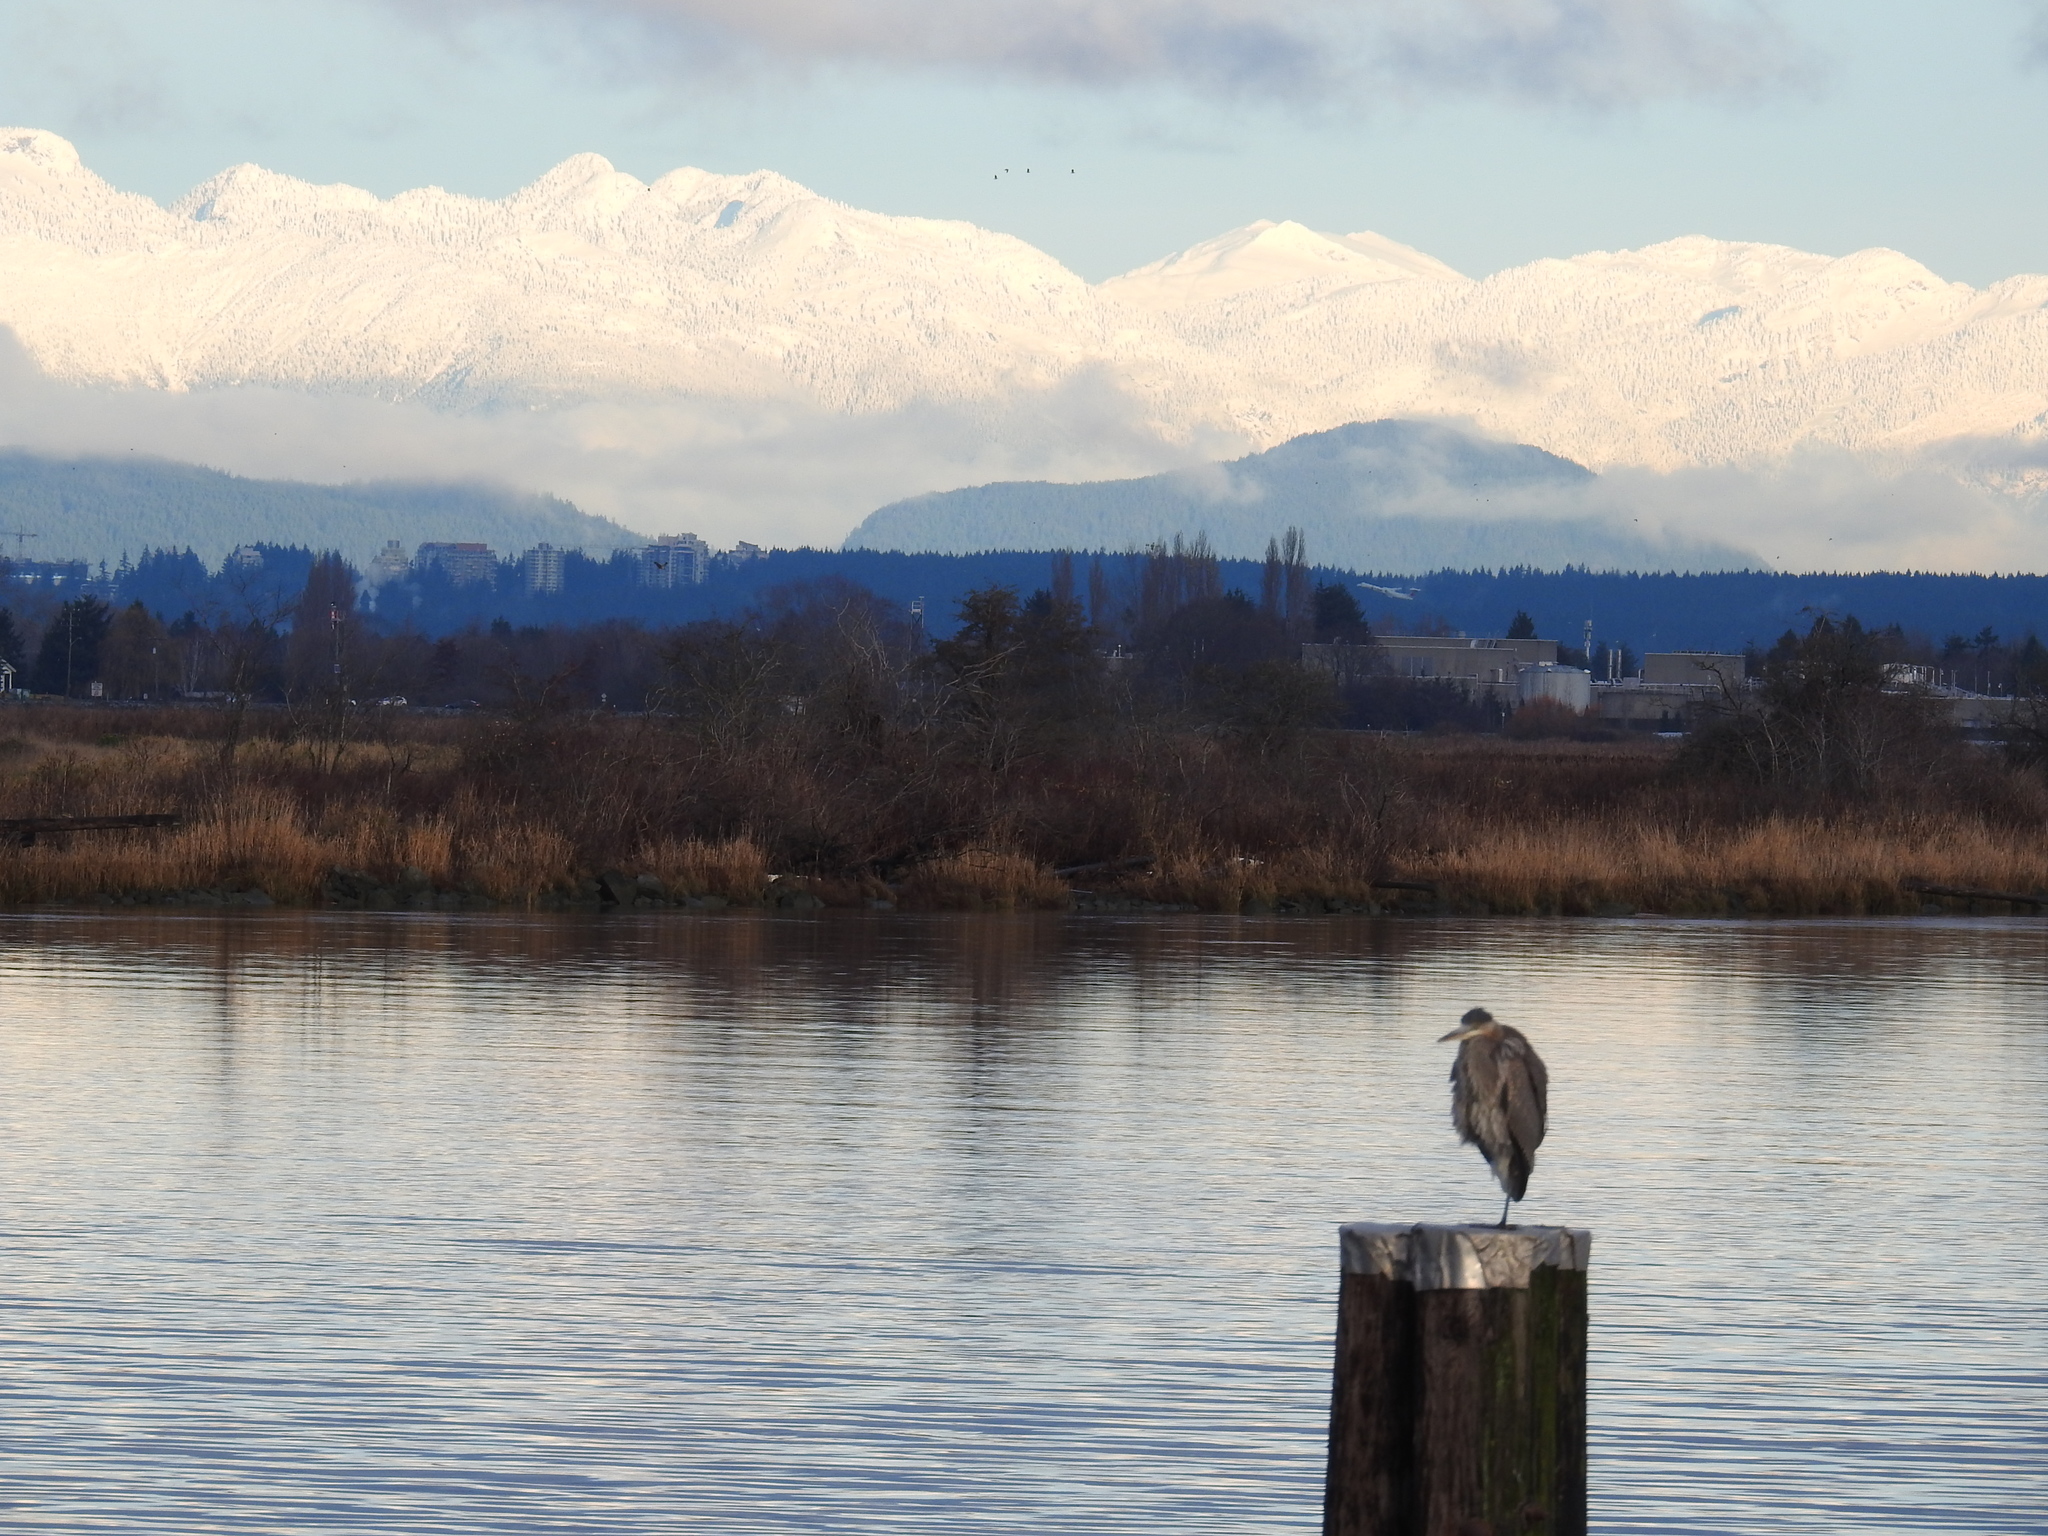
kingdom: Animalia
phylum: Chordata
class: Aves
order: Pelecaniformes
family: Ardeidae
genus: Ardea
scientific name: Ardea herodias
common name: Great blue heron
